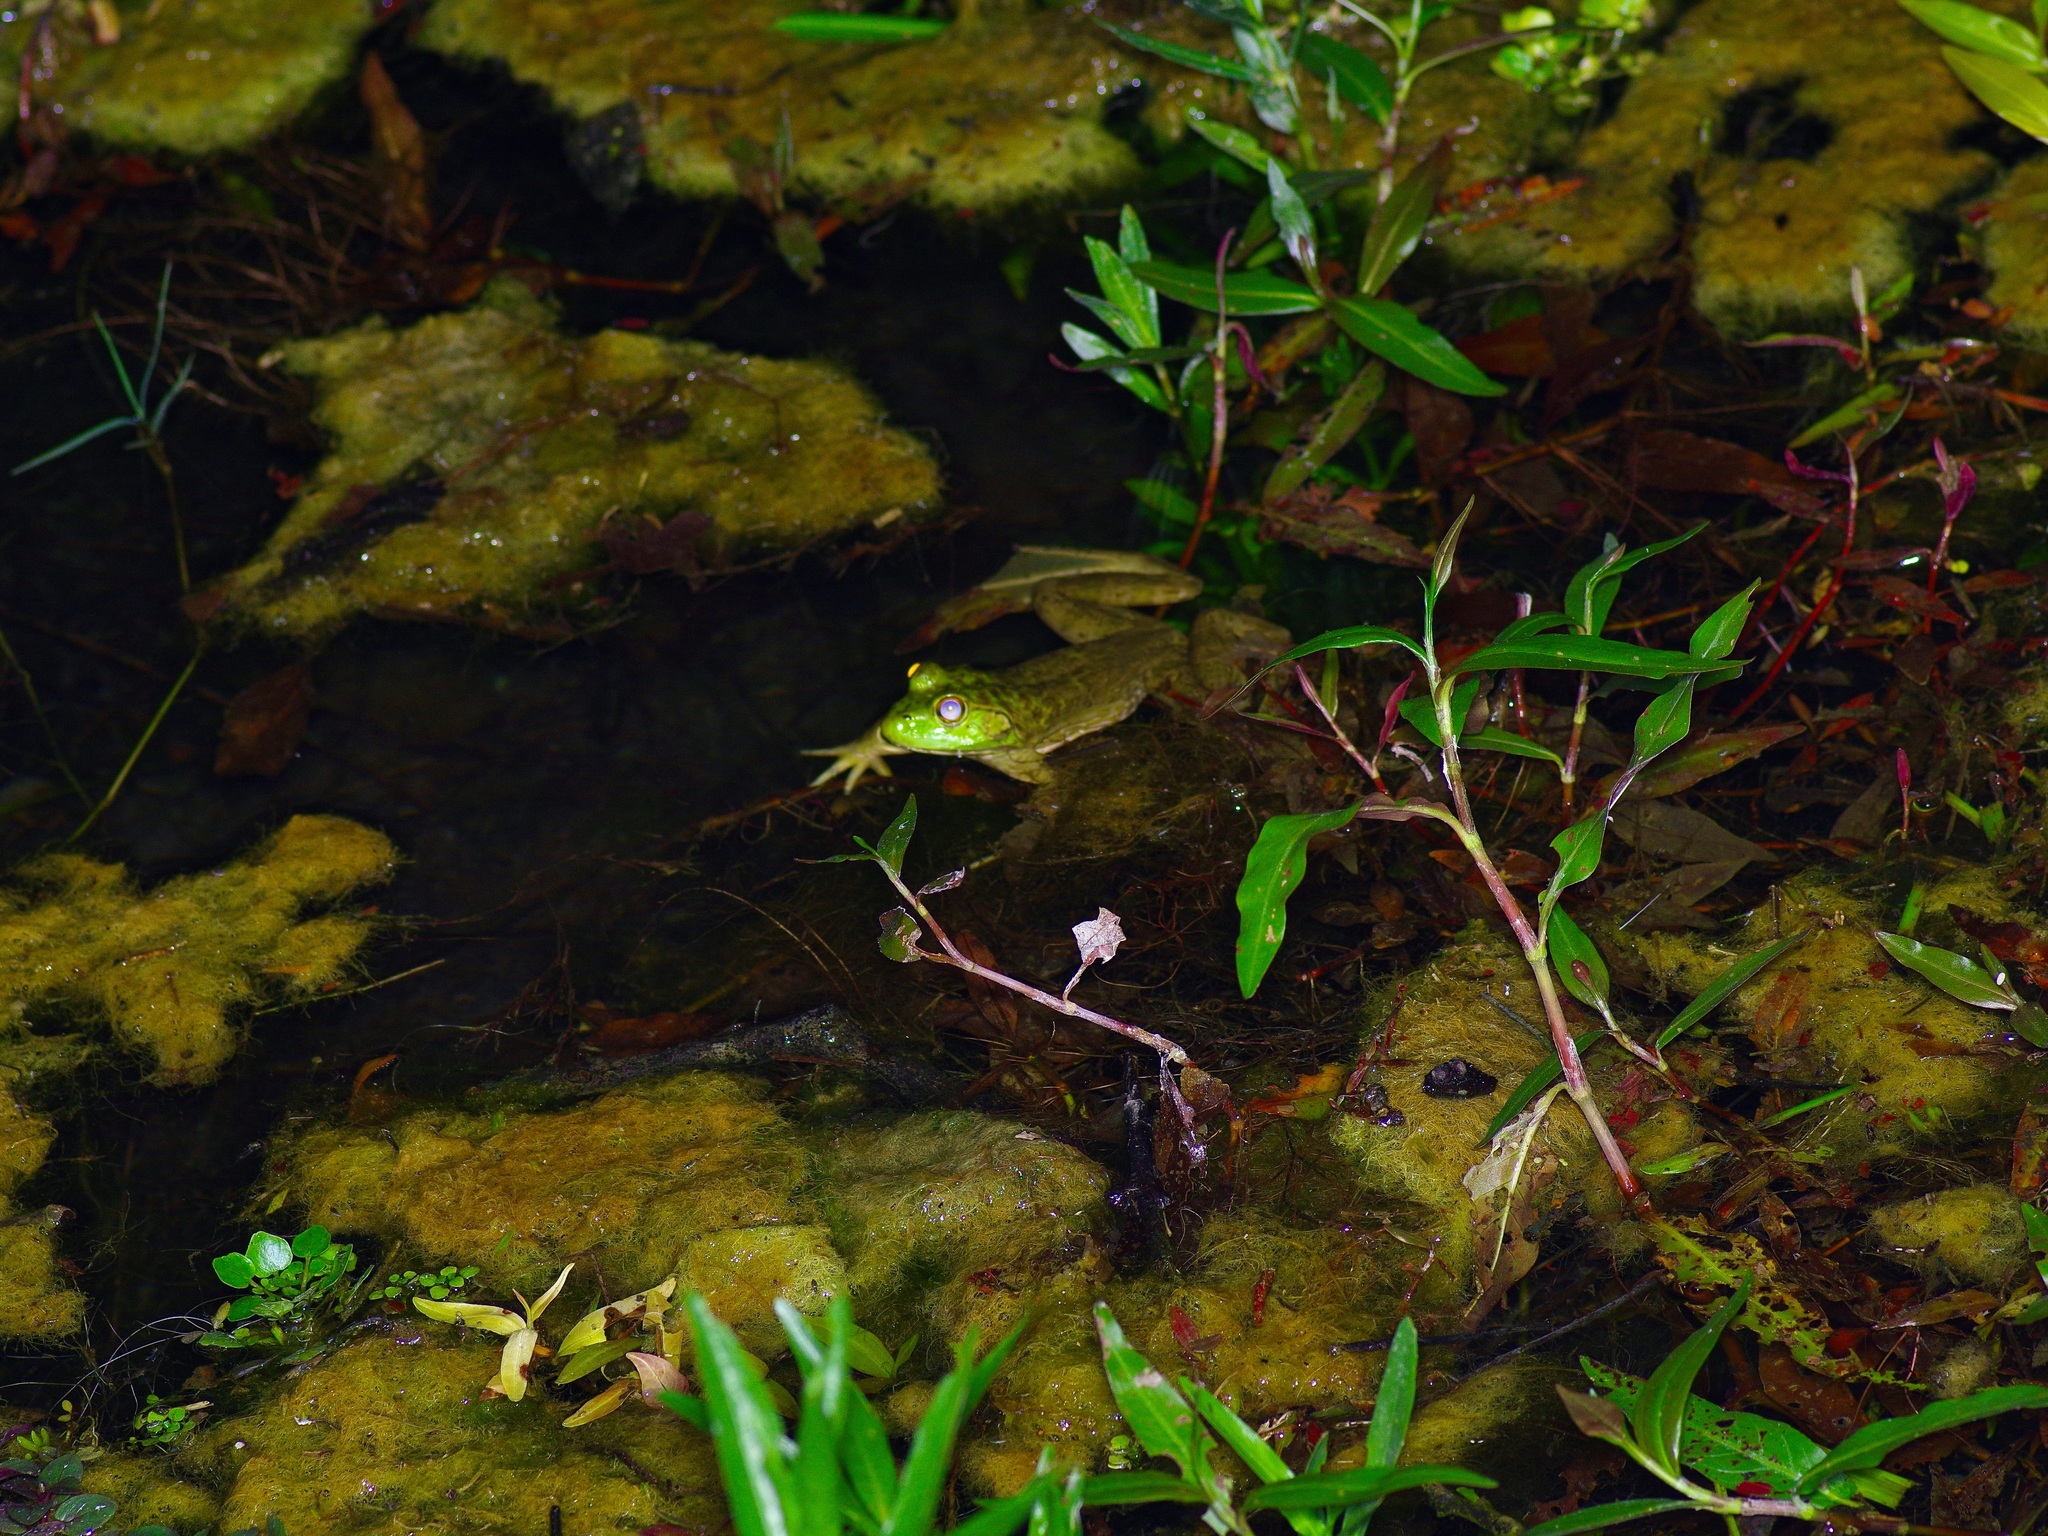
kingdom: Animalia
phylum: Chordata
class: Amphibia
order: Anura
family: Ranidae
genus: Lithobates
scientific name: Lithobates catesbeianus
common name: American bullfrog
